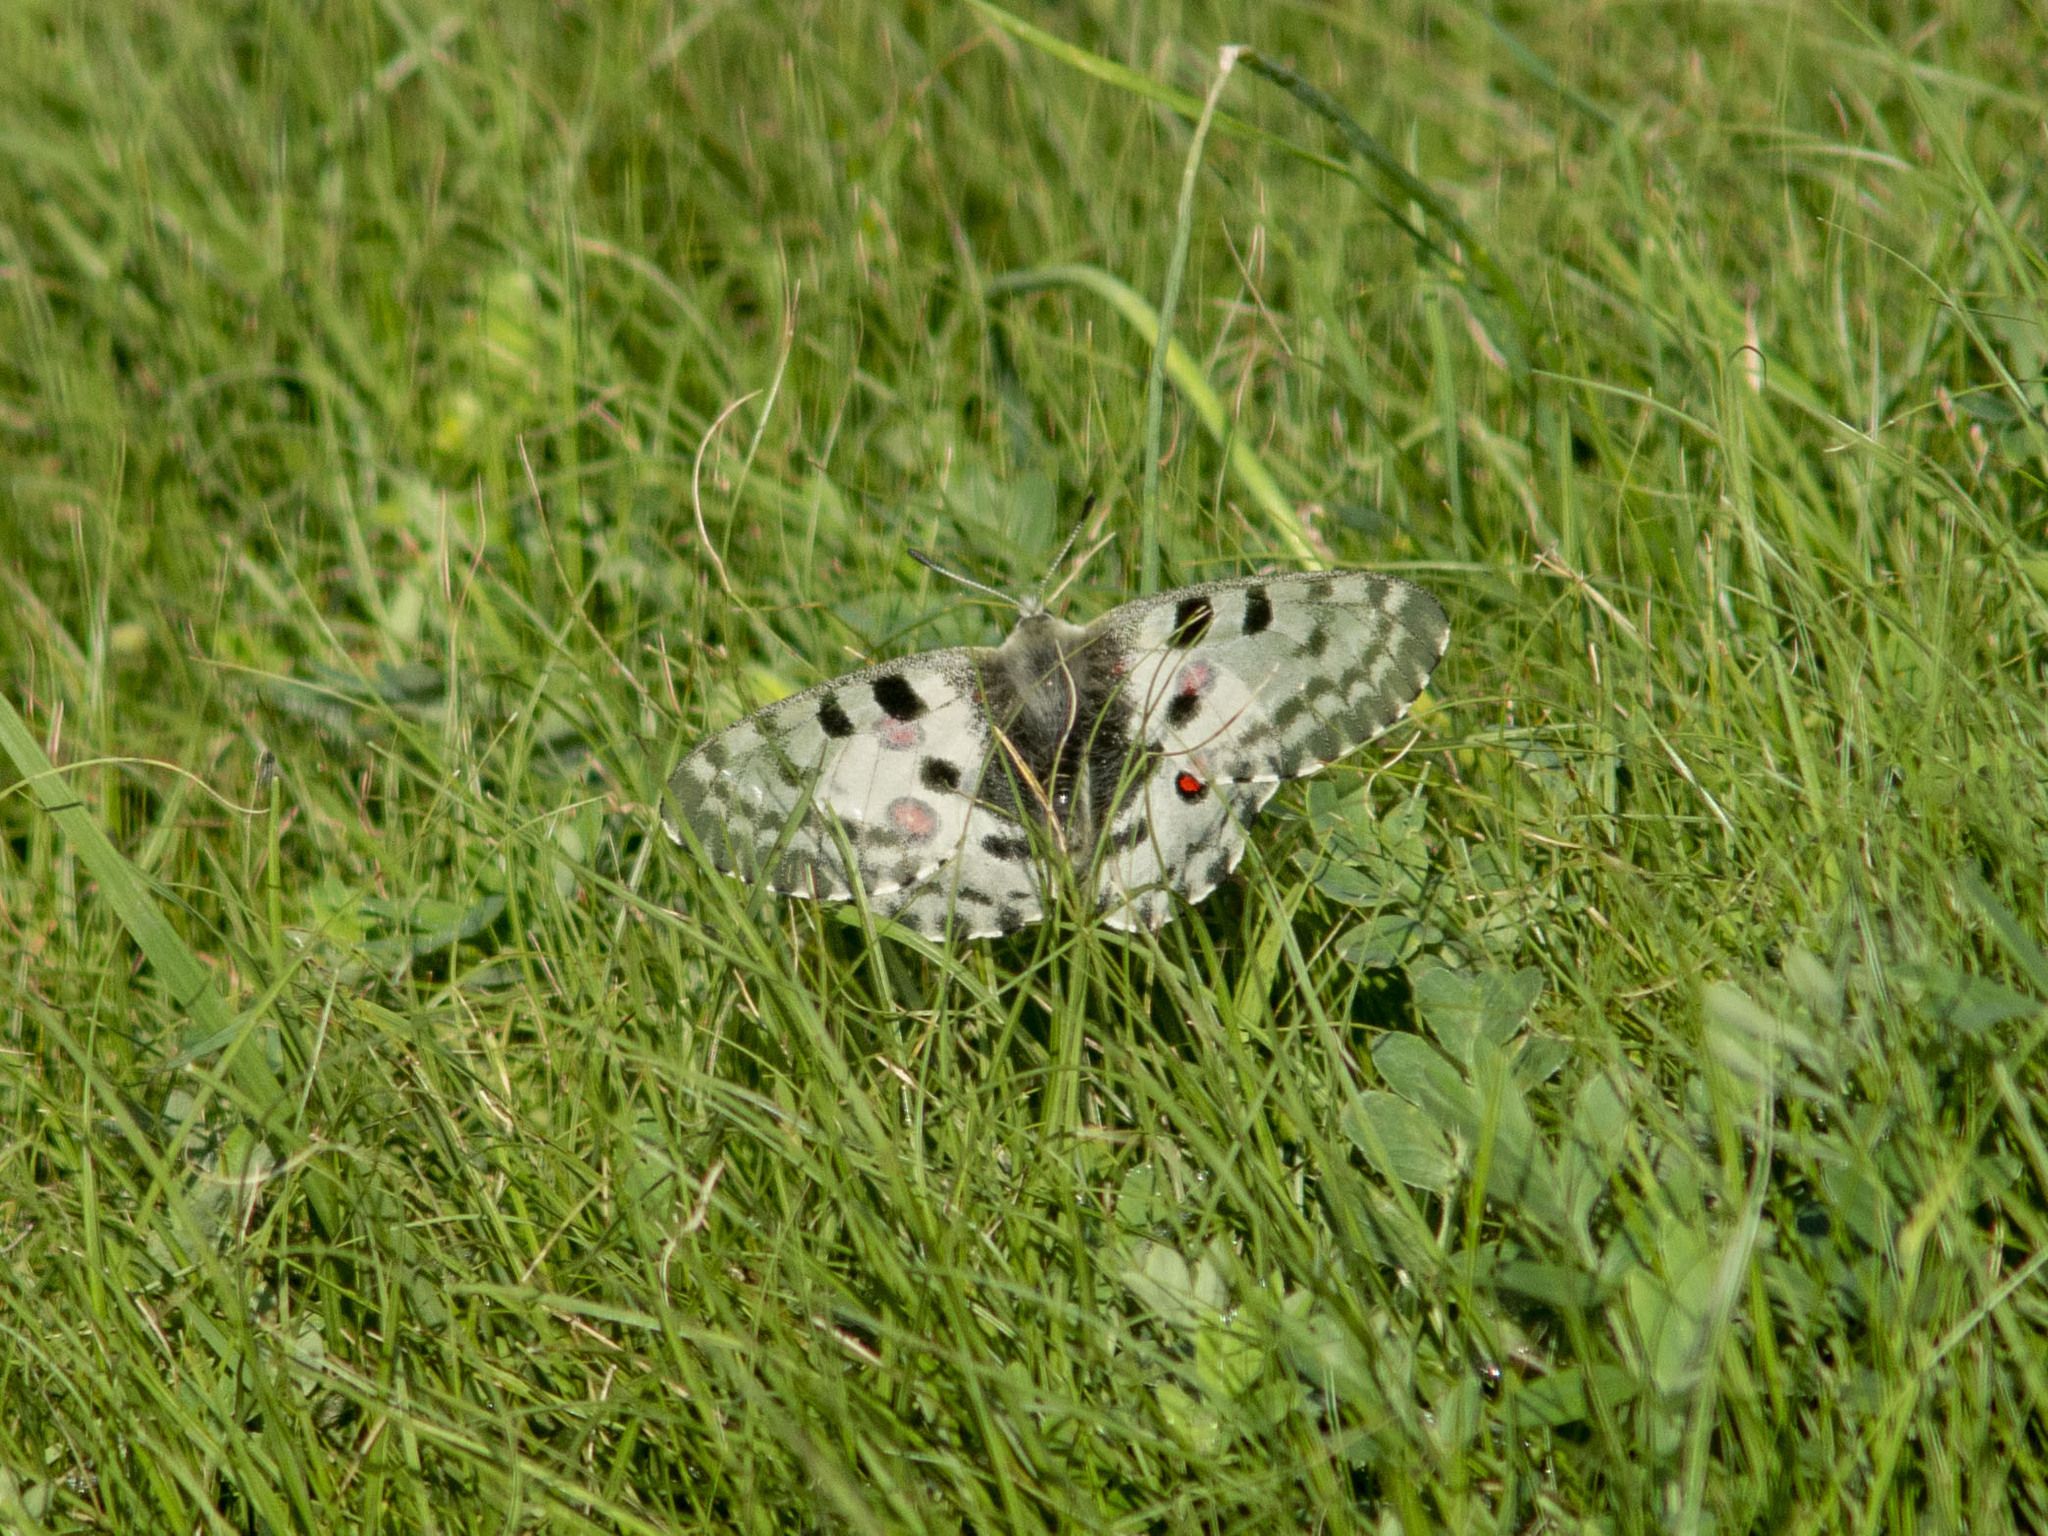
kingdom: Animalia
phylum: Arthropoda
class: Insecta
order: Lepidoptera
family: Papilionidae
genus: Parnassius
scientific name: Parnassius nomion
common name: Nomion apollo
